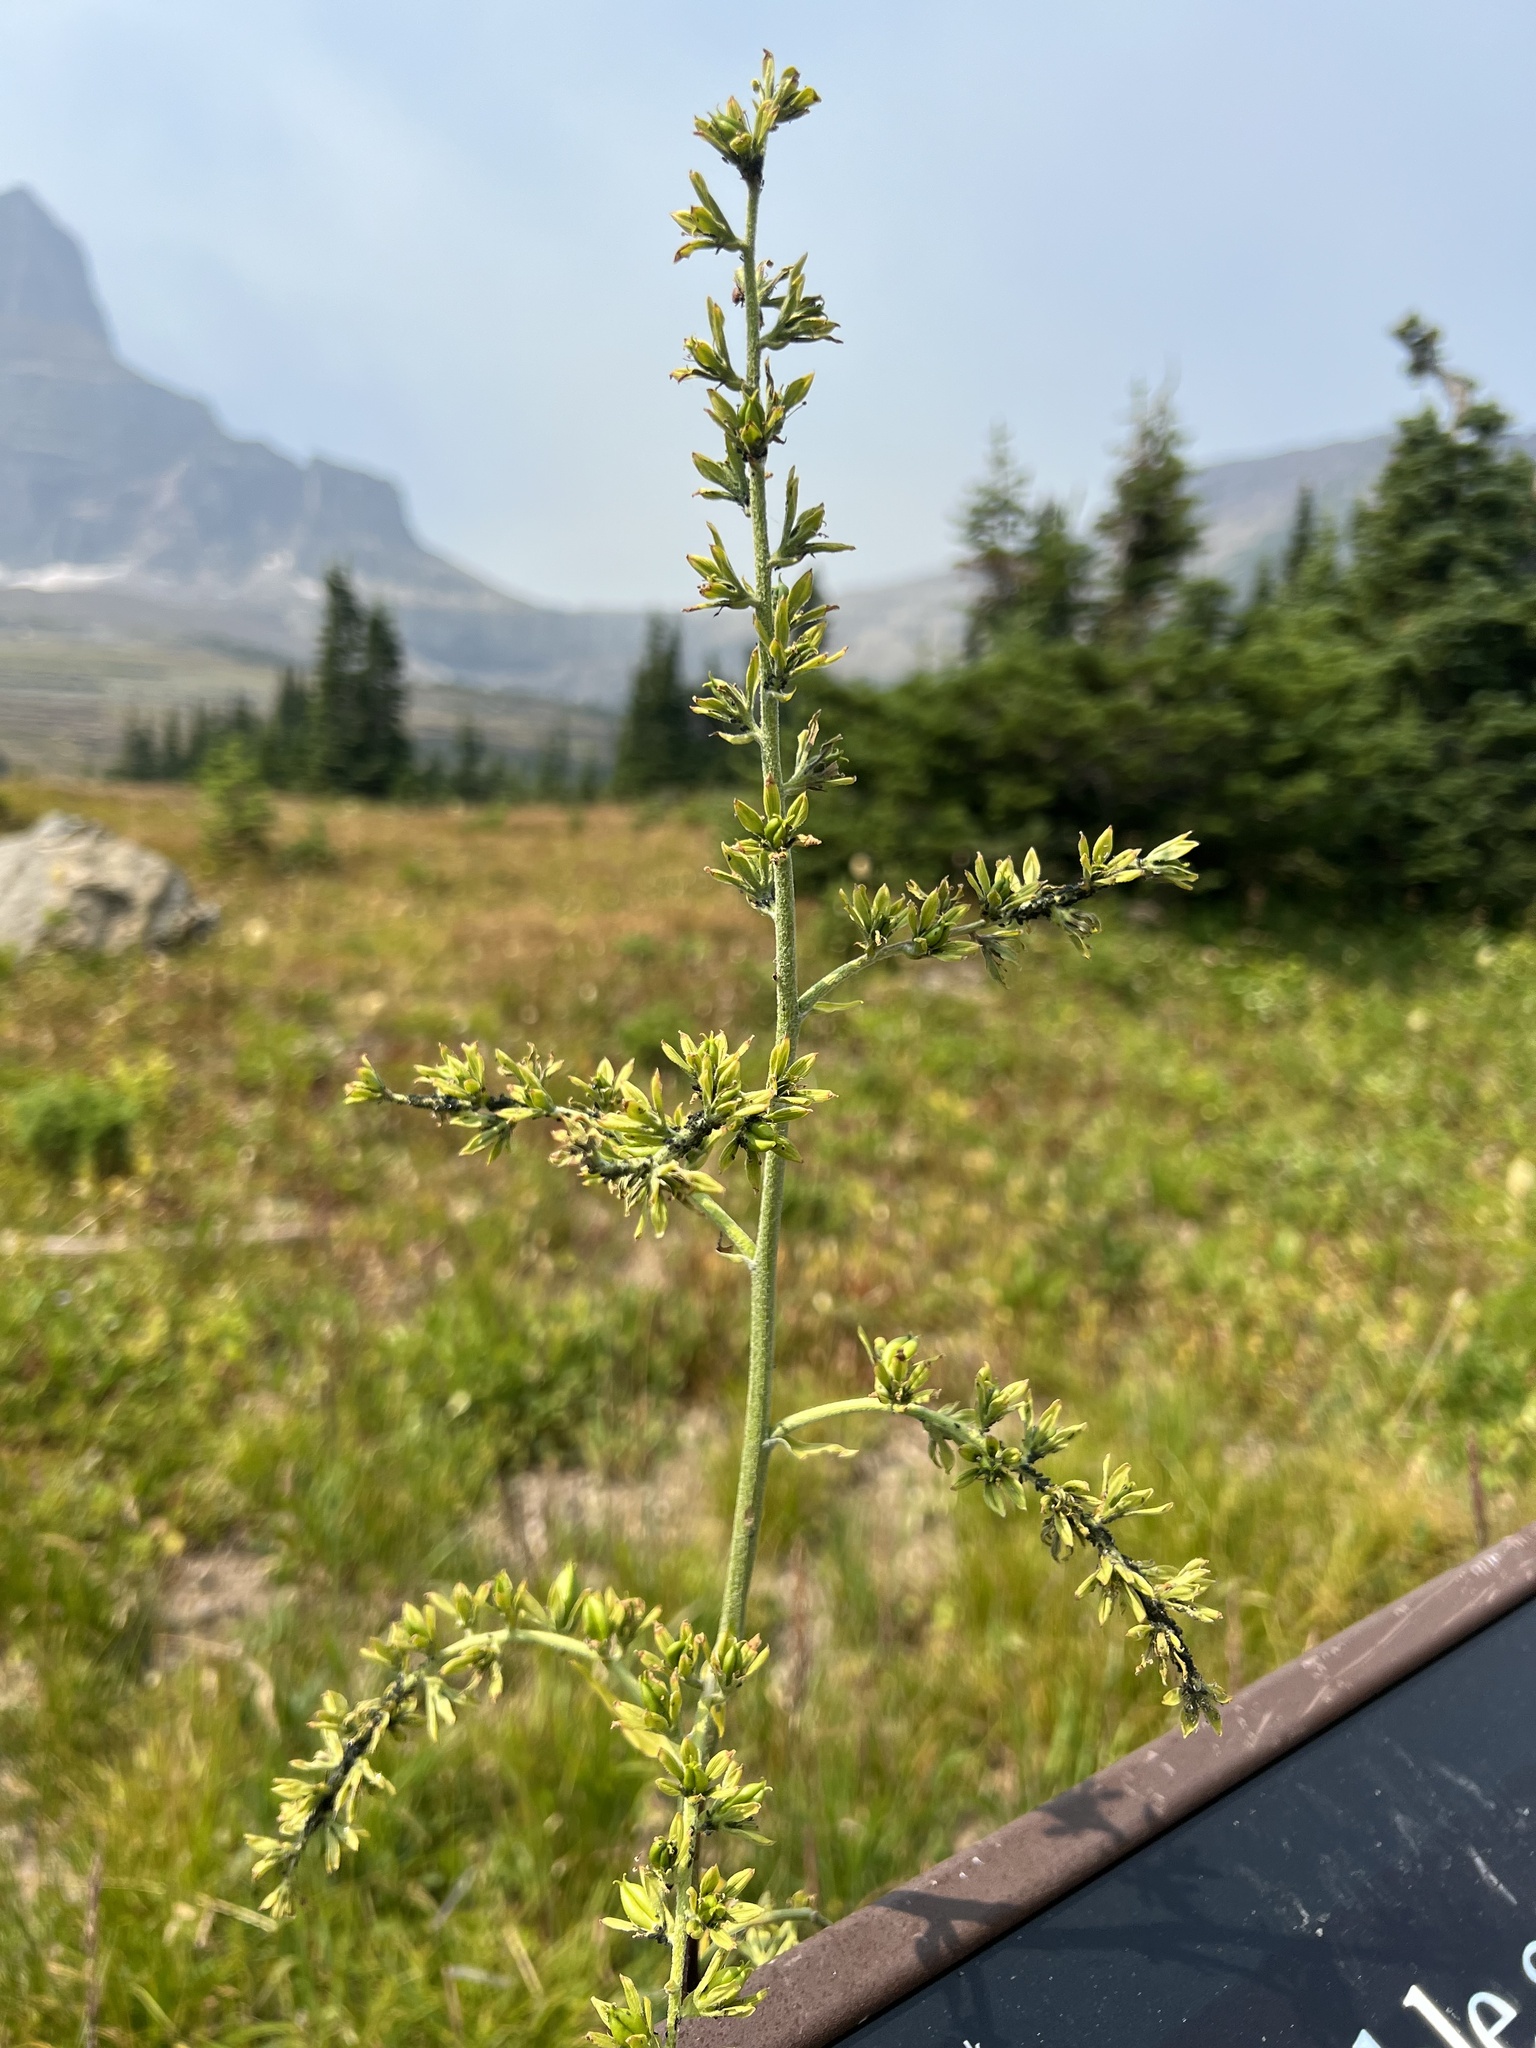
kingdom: Plantae
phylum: Tracheophyta
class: Liliopsida
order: Liliales
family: Melanthiaceae
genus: Veratrum
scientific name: Veratrum viride
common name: American false hellebore
